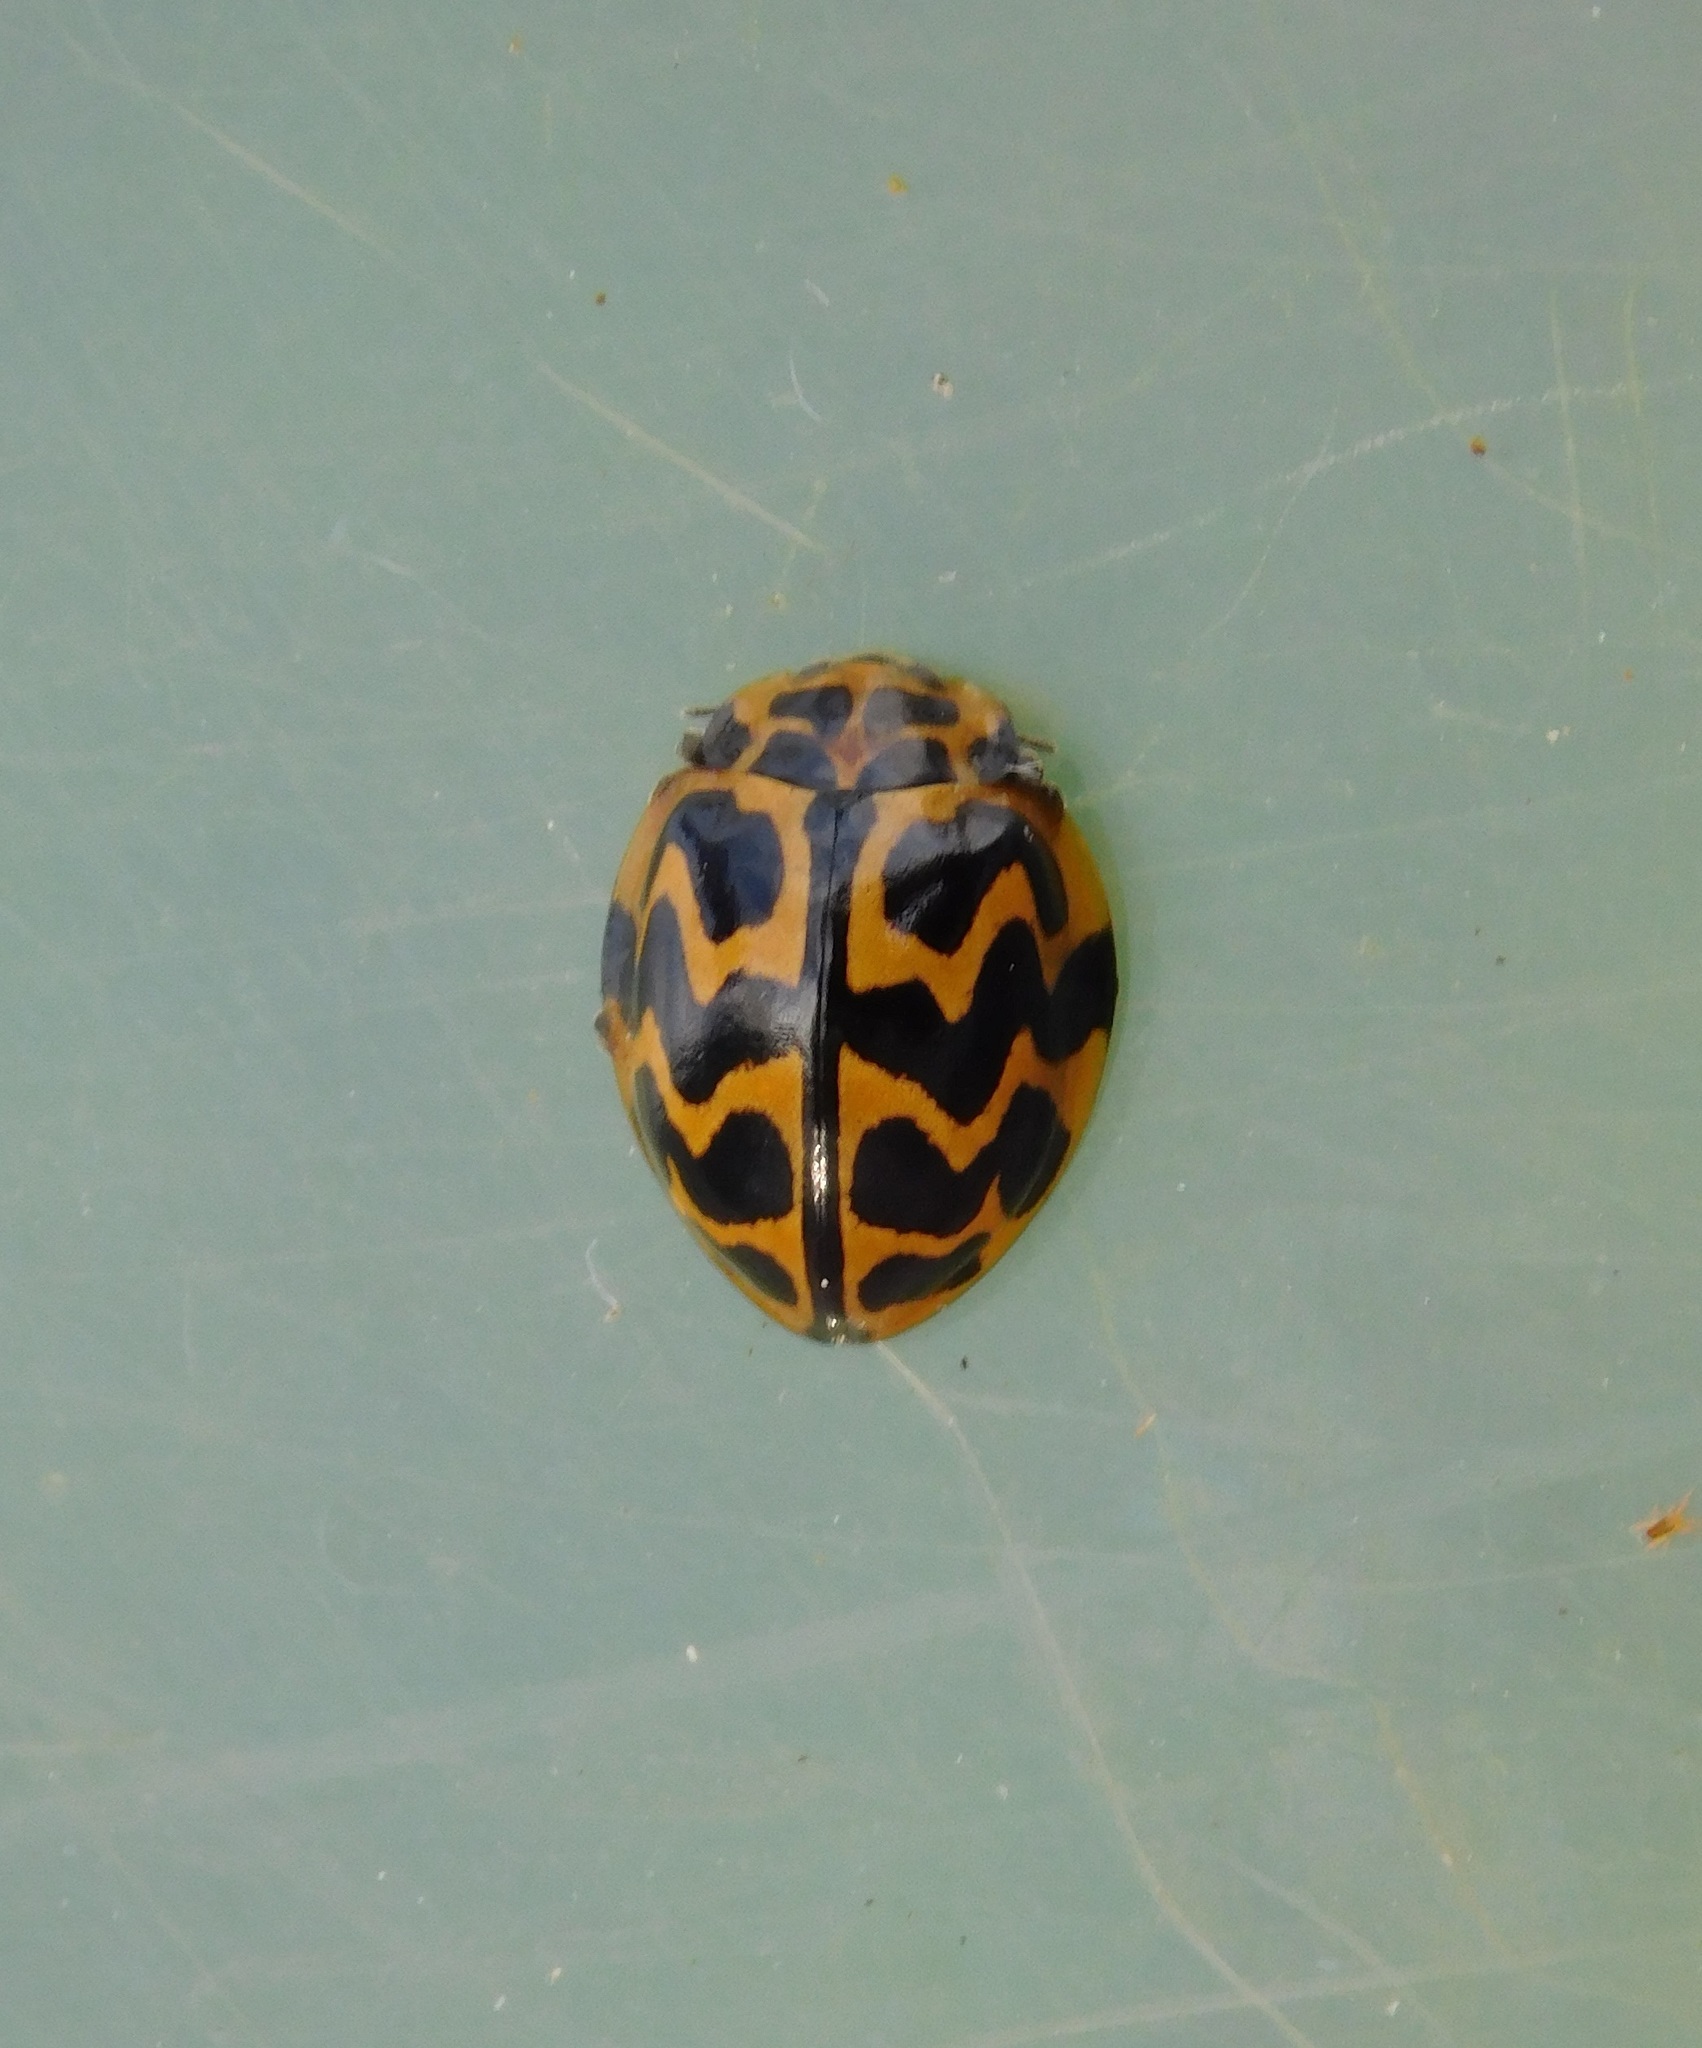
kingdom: Animalia
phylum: Arthropoda
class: Insecta
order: Coleoptera
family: Coccinellidae
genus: Cleobora
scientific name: Cleobora
